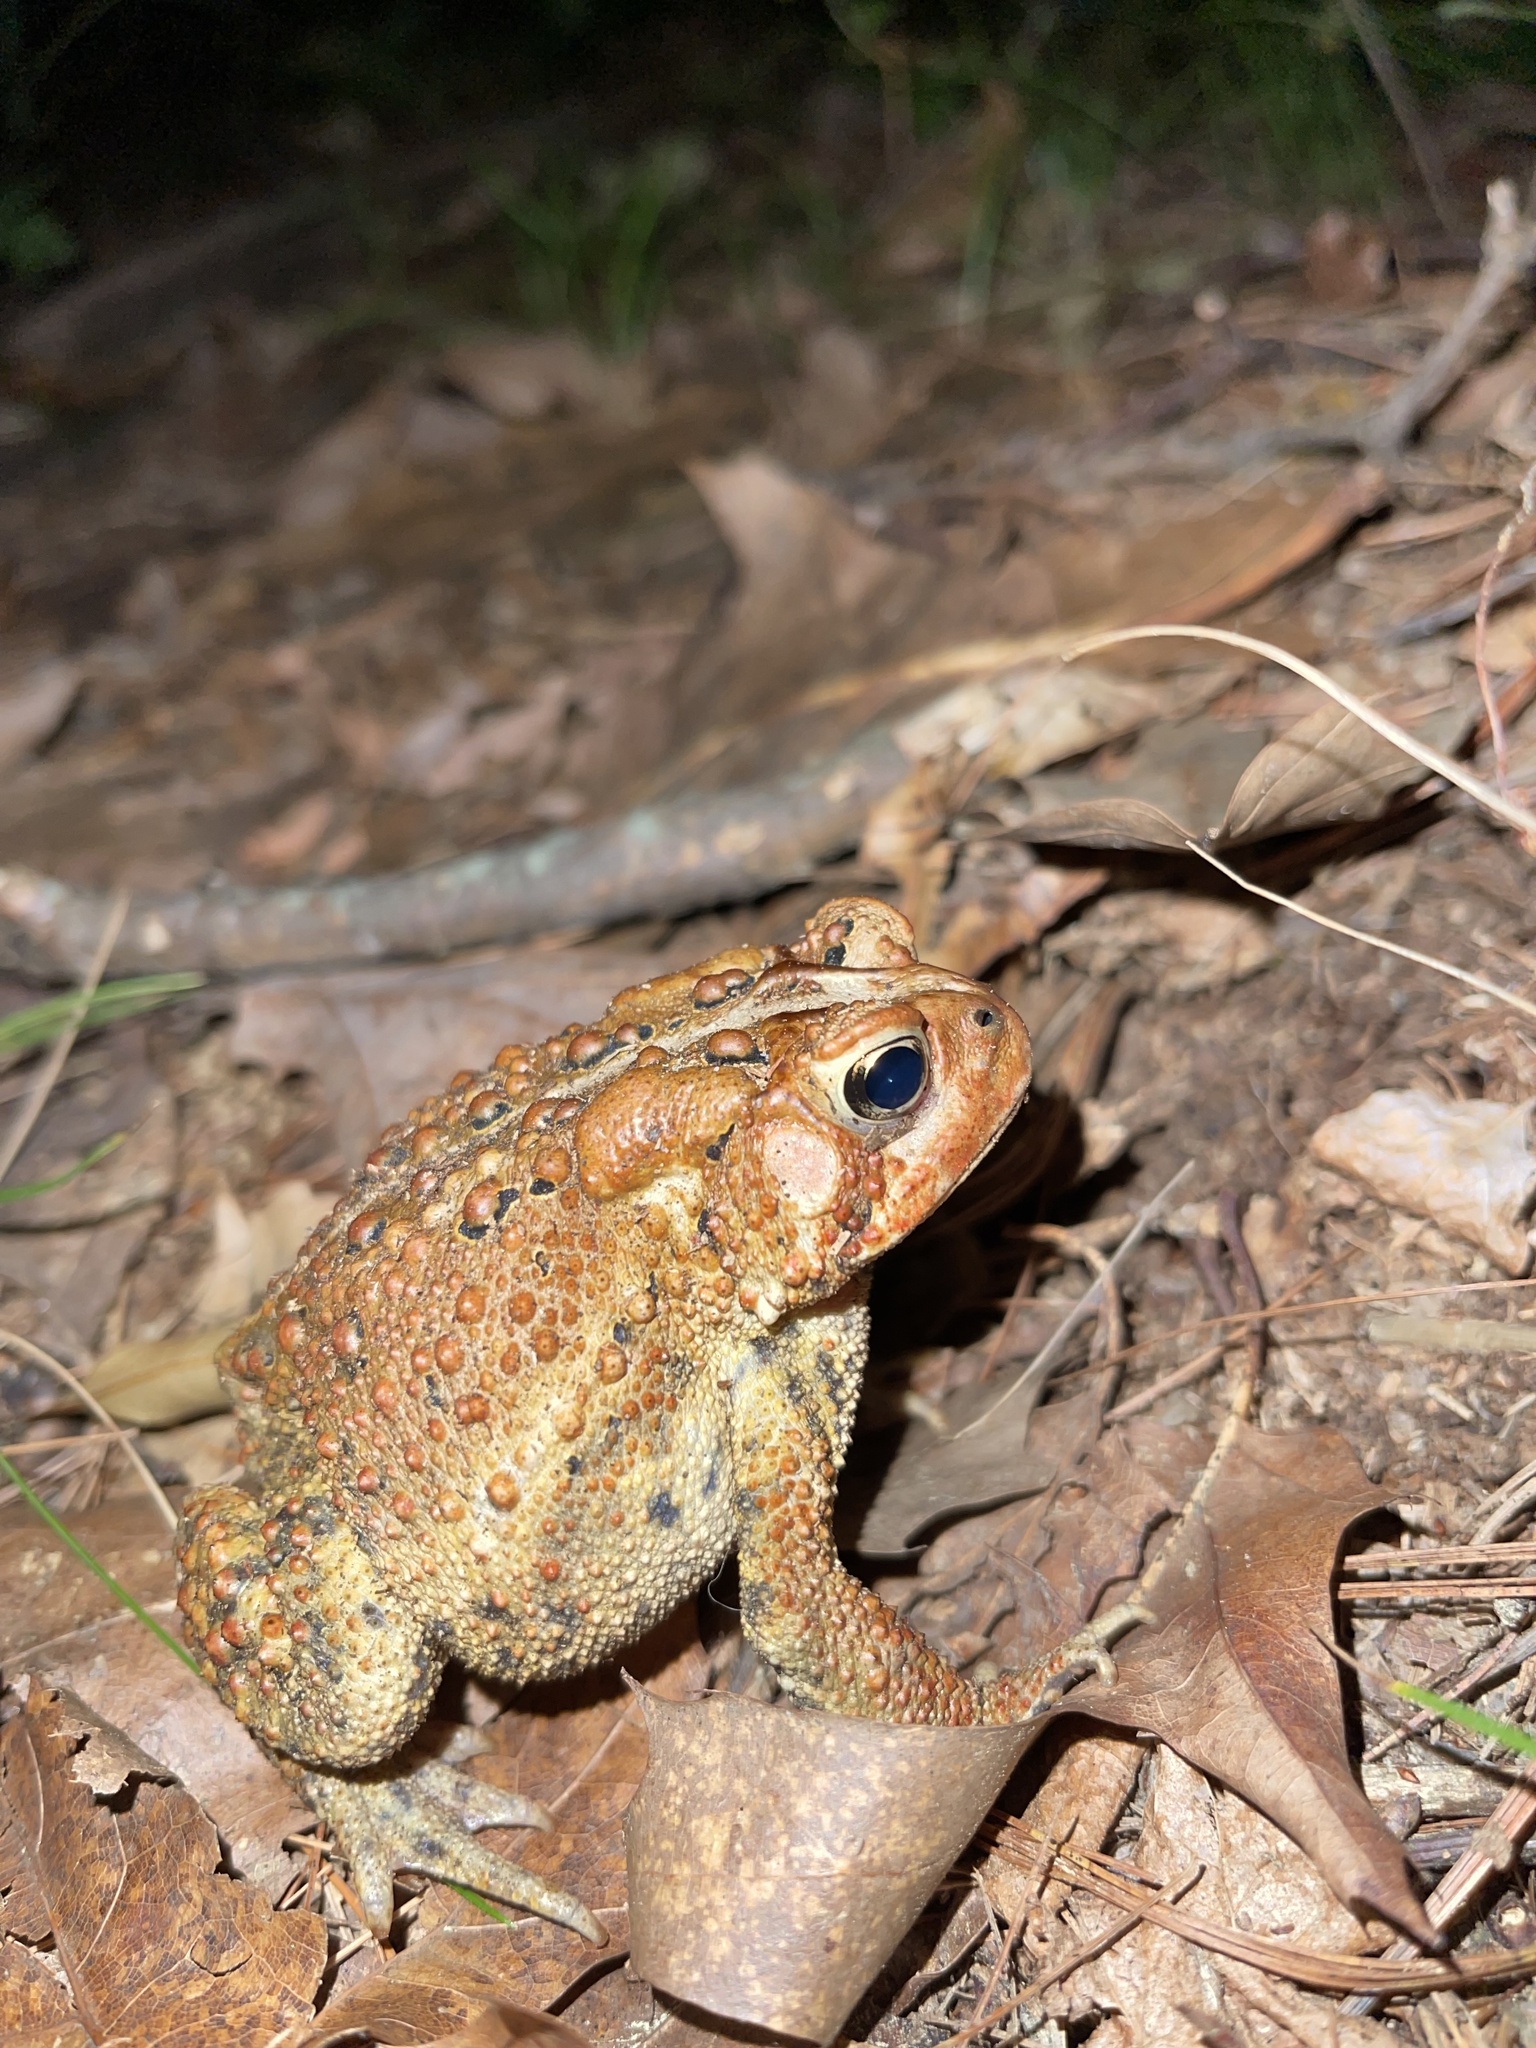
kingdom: Animalia
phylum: Chordata
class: Amphibia
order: Anura
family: Bufonidae
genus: Anaxyrus
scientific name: Anaxyrus americanus
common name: American toad
